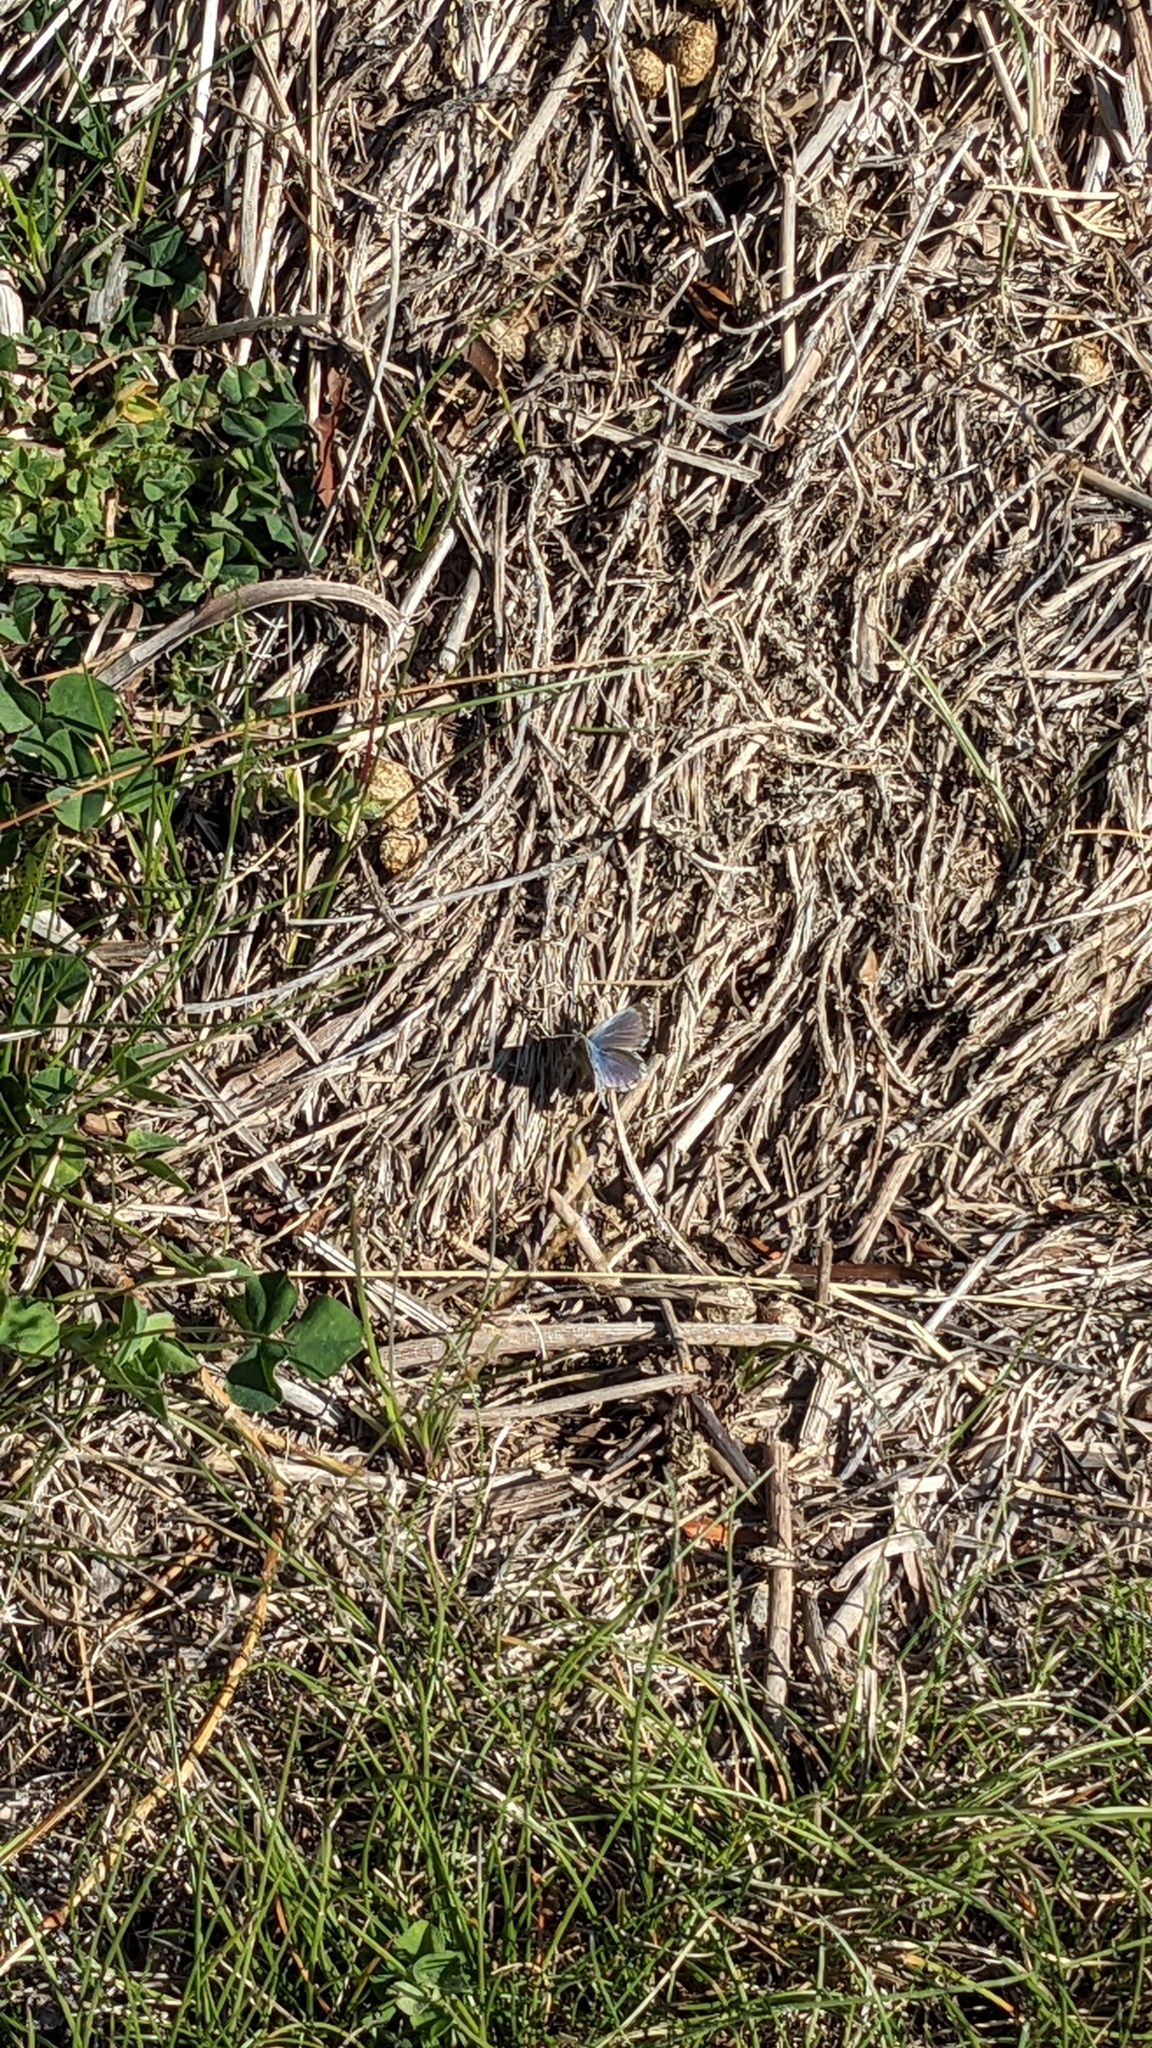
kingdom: Animalia
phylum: Arthropoda
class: Insecta
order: Lepidoptera
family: Lycaenidae
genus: Zizina
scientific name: Zizina oxleyi
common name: Southern blue
